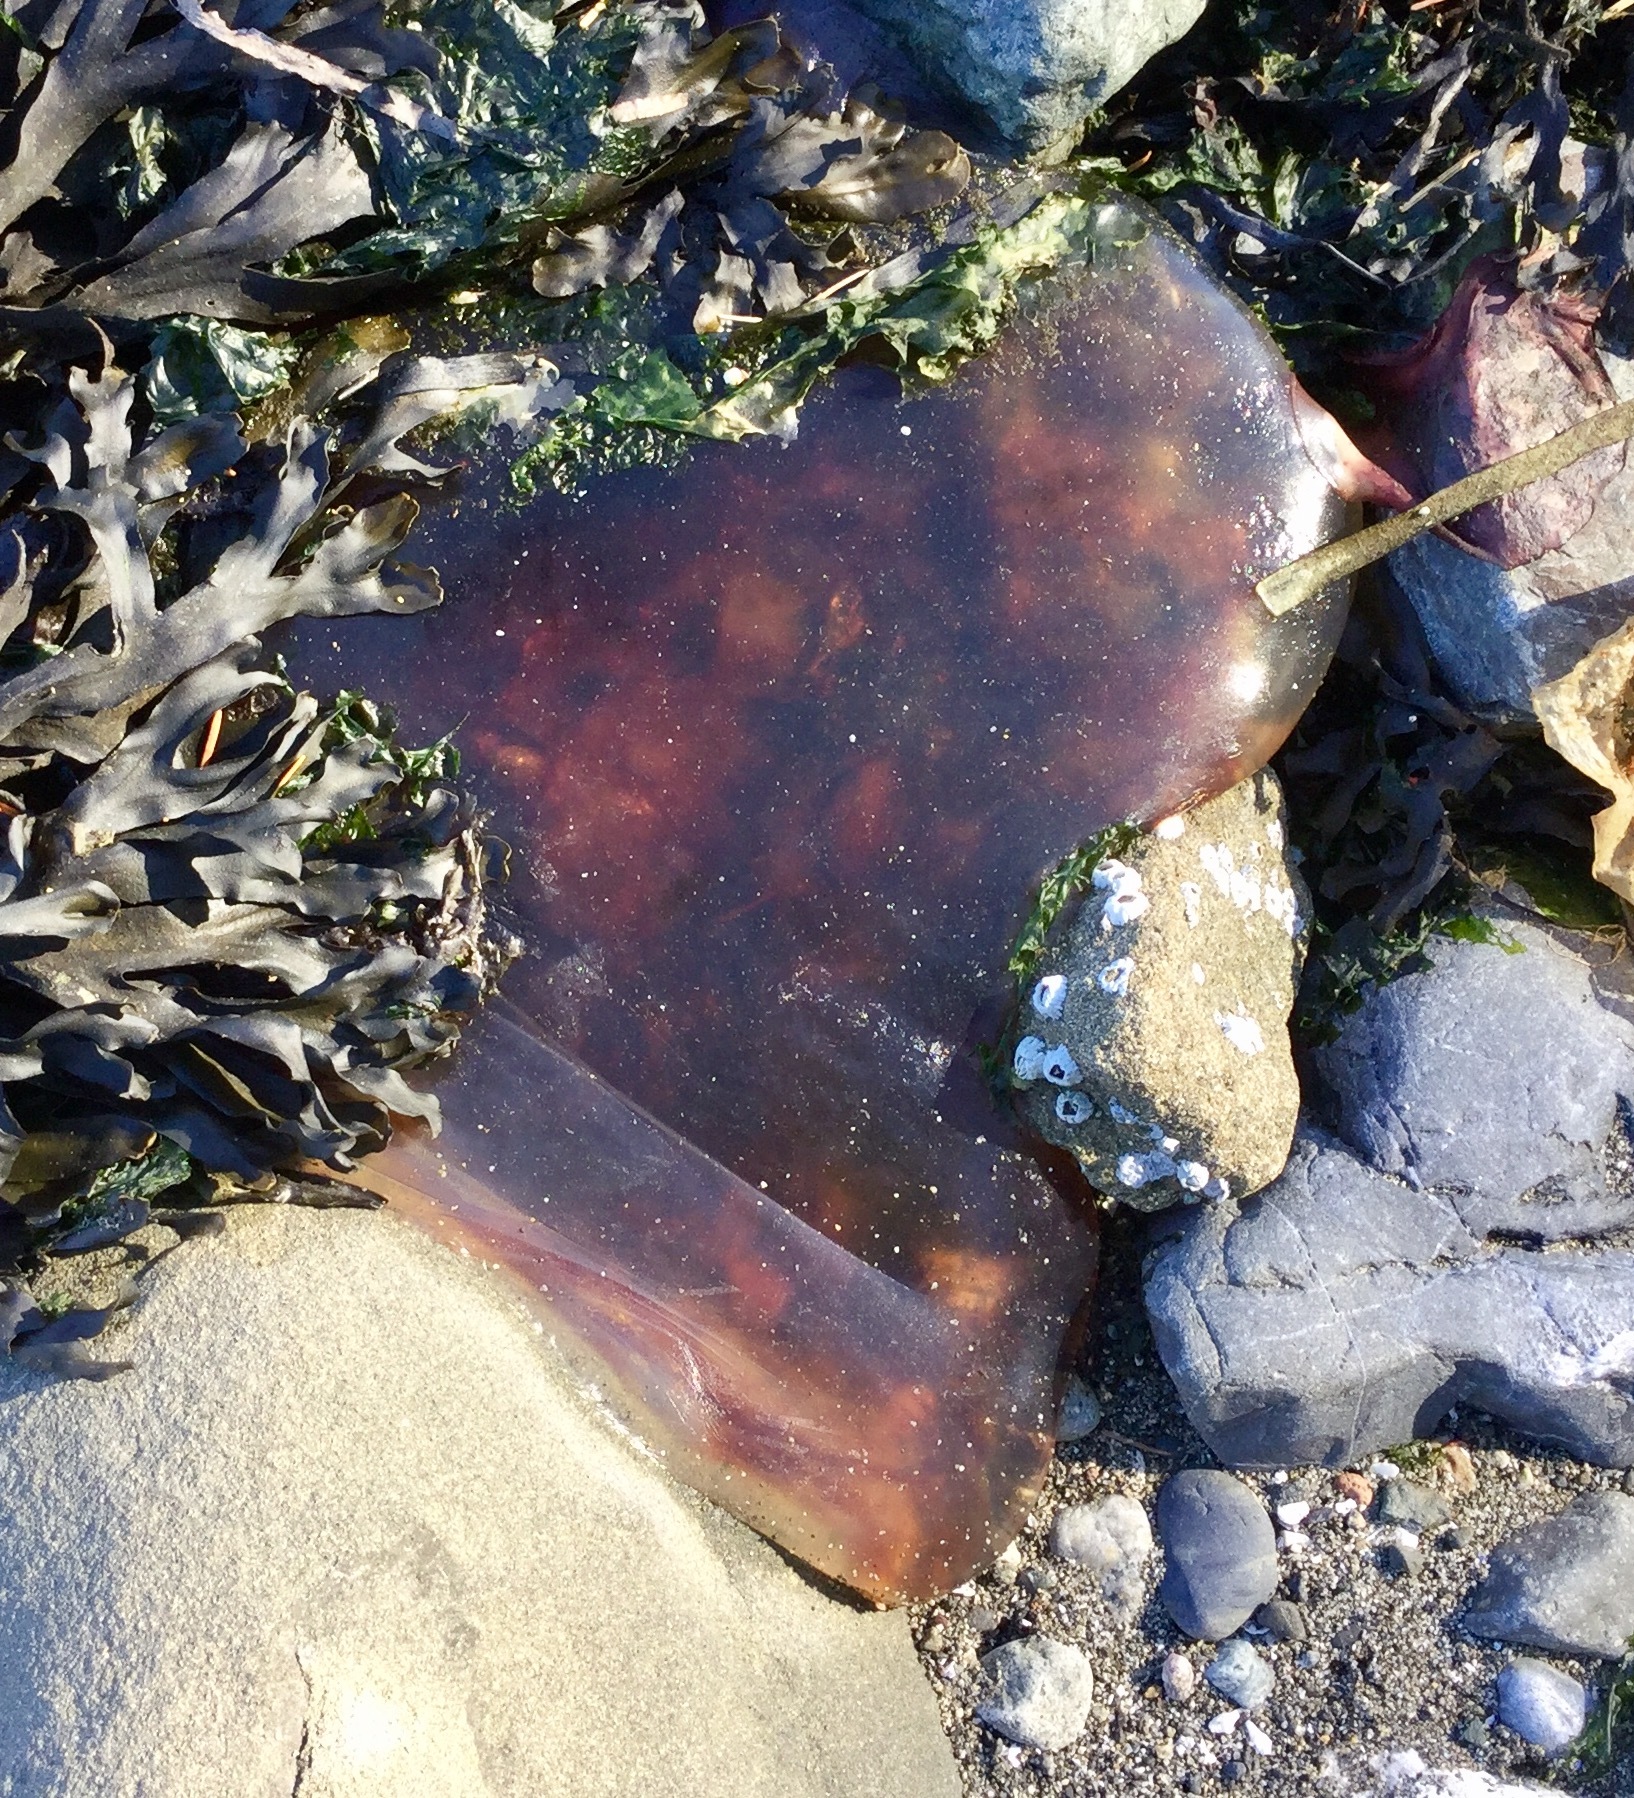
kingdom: Animalia
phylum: Cnidaria
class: Scyphozoa
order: Semaeostomeae
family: Cyaneidae
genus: Cyanea
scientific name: Cyanea ferruginea
